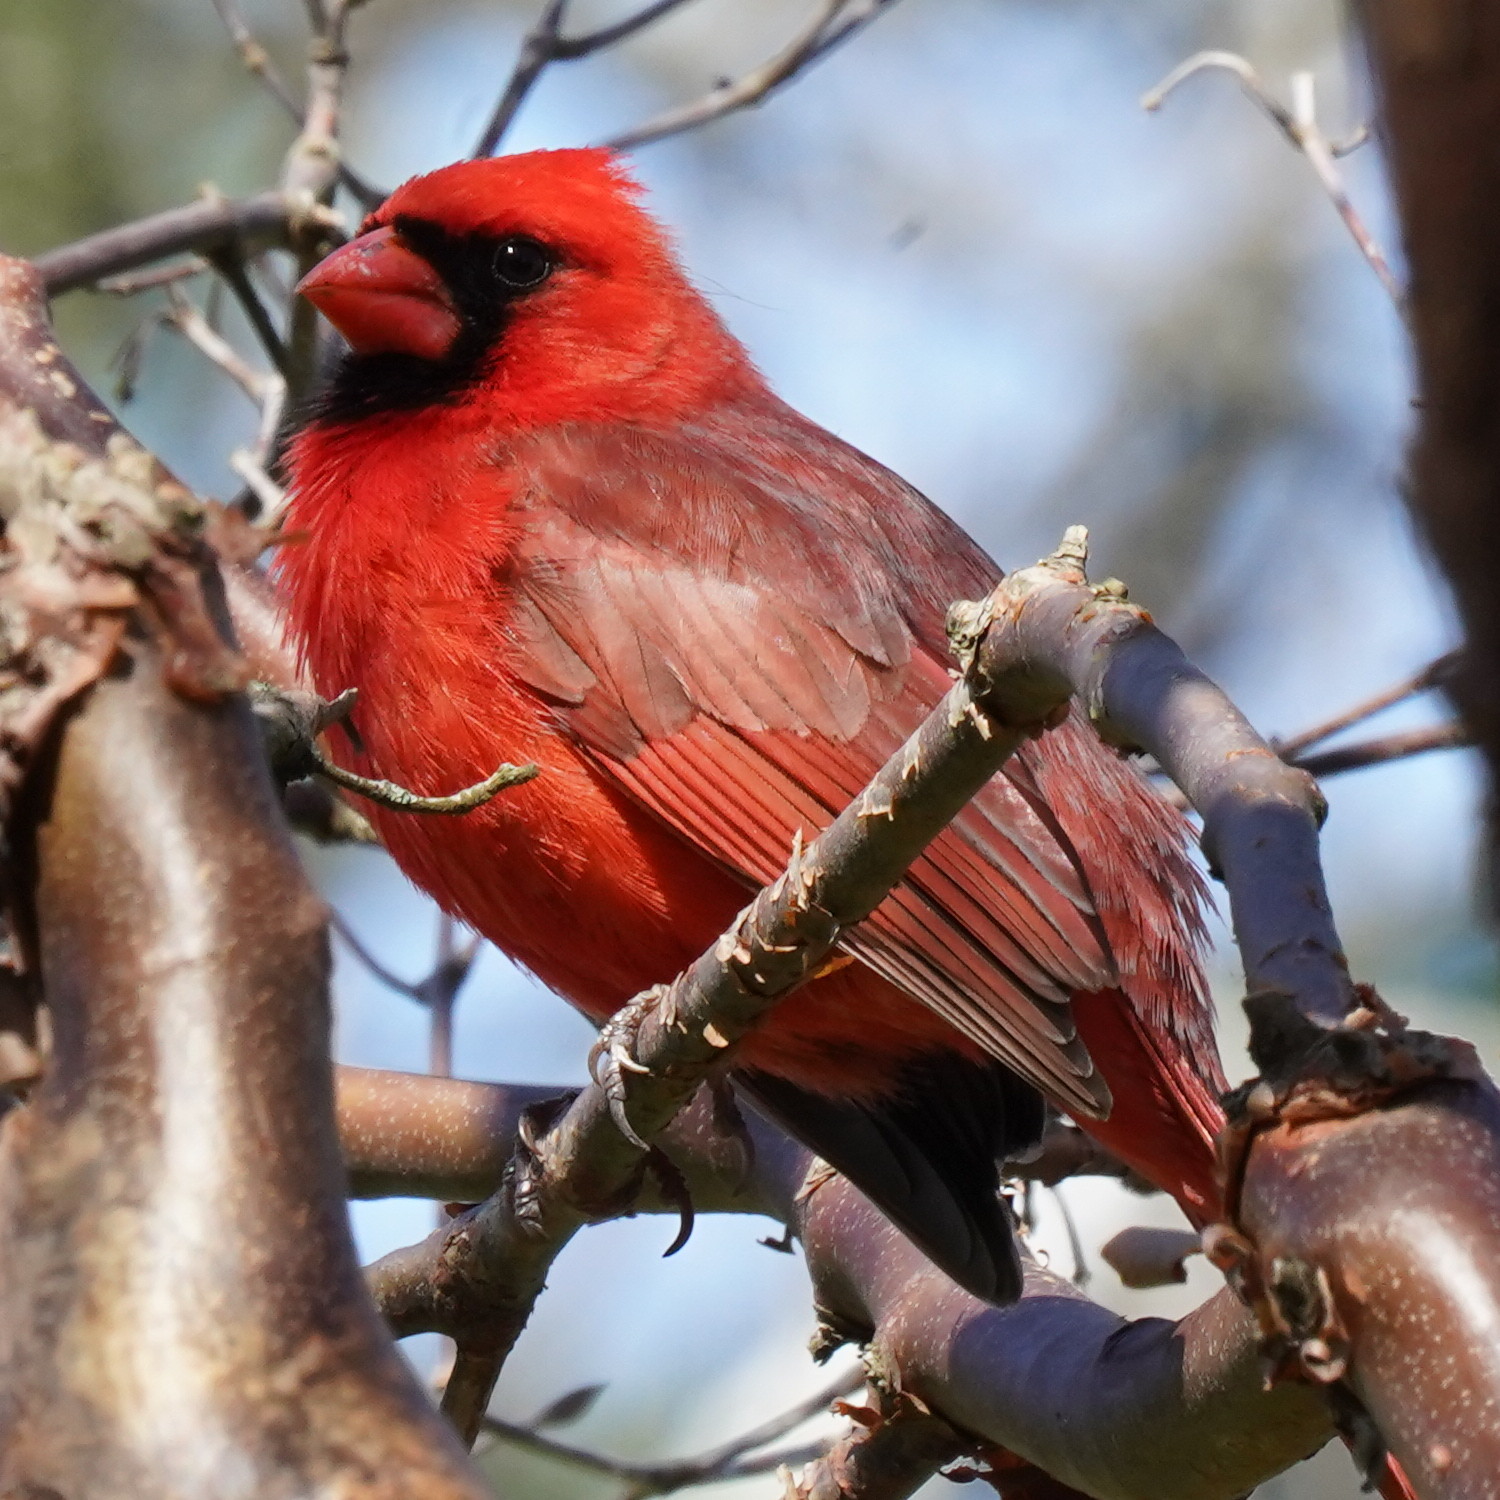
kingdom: Animalia
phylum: Chordata
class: Aves
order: Passeriformes
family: Cardinalidae
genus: Cardinalis
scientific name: Cardinalis cardinalis
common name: Northern cardinal
